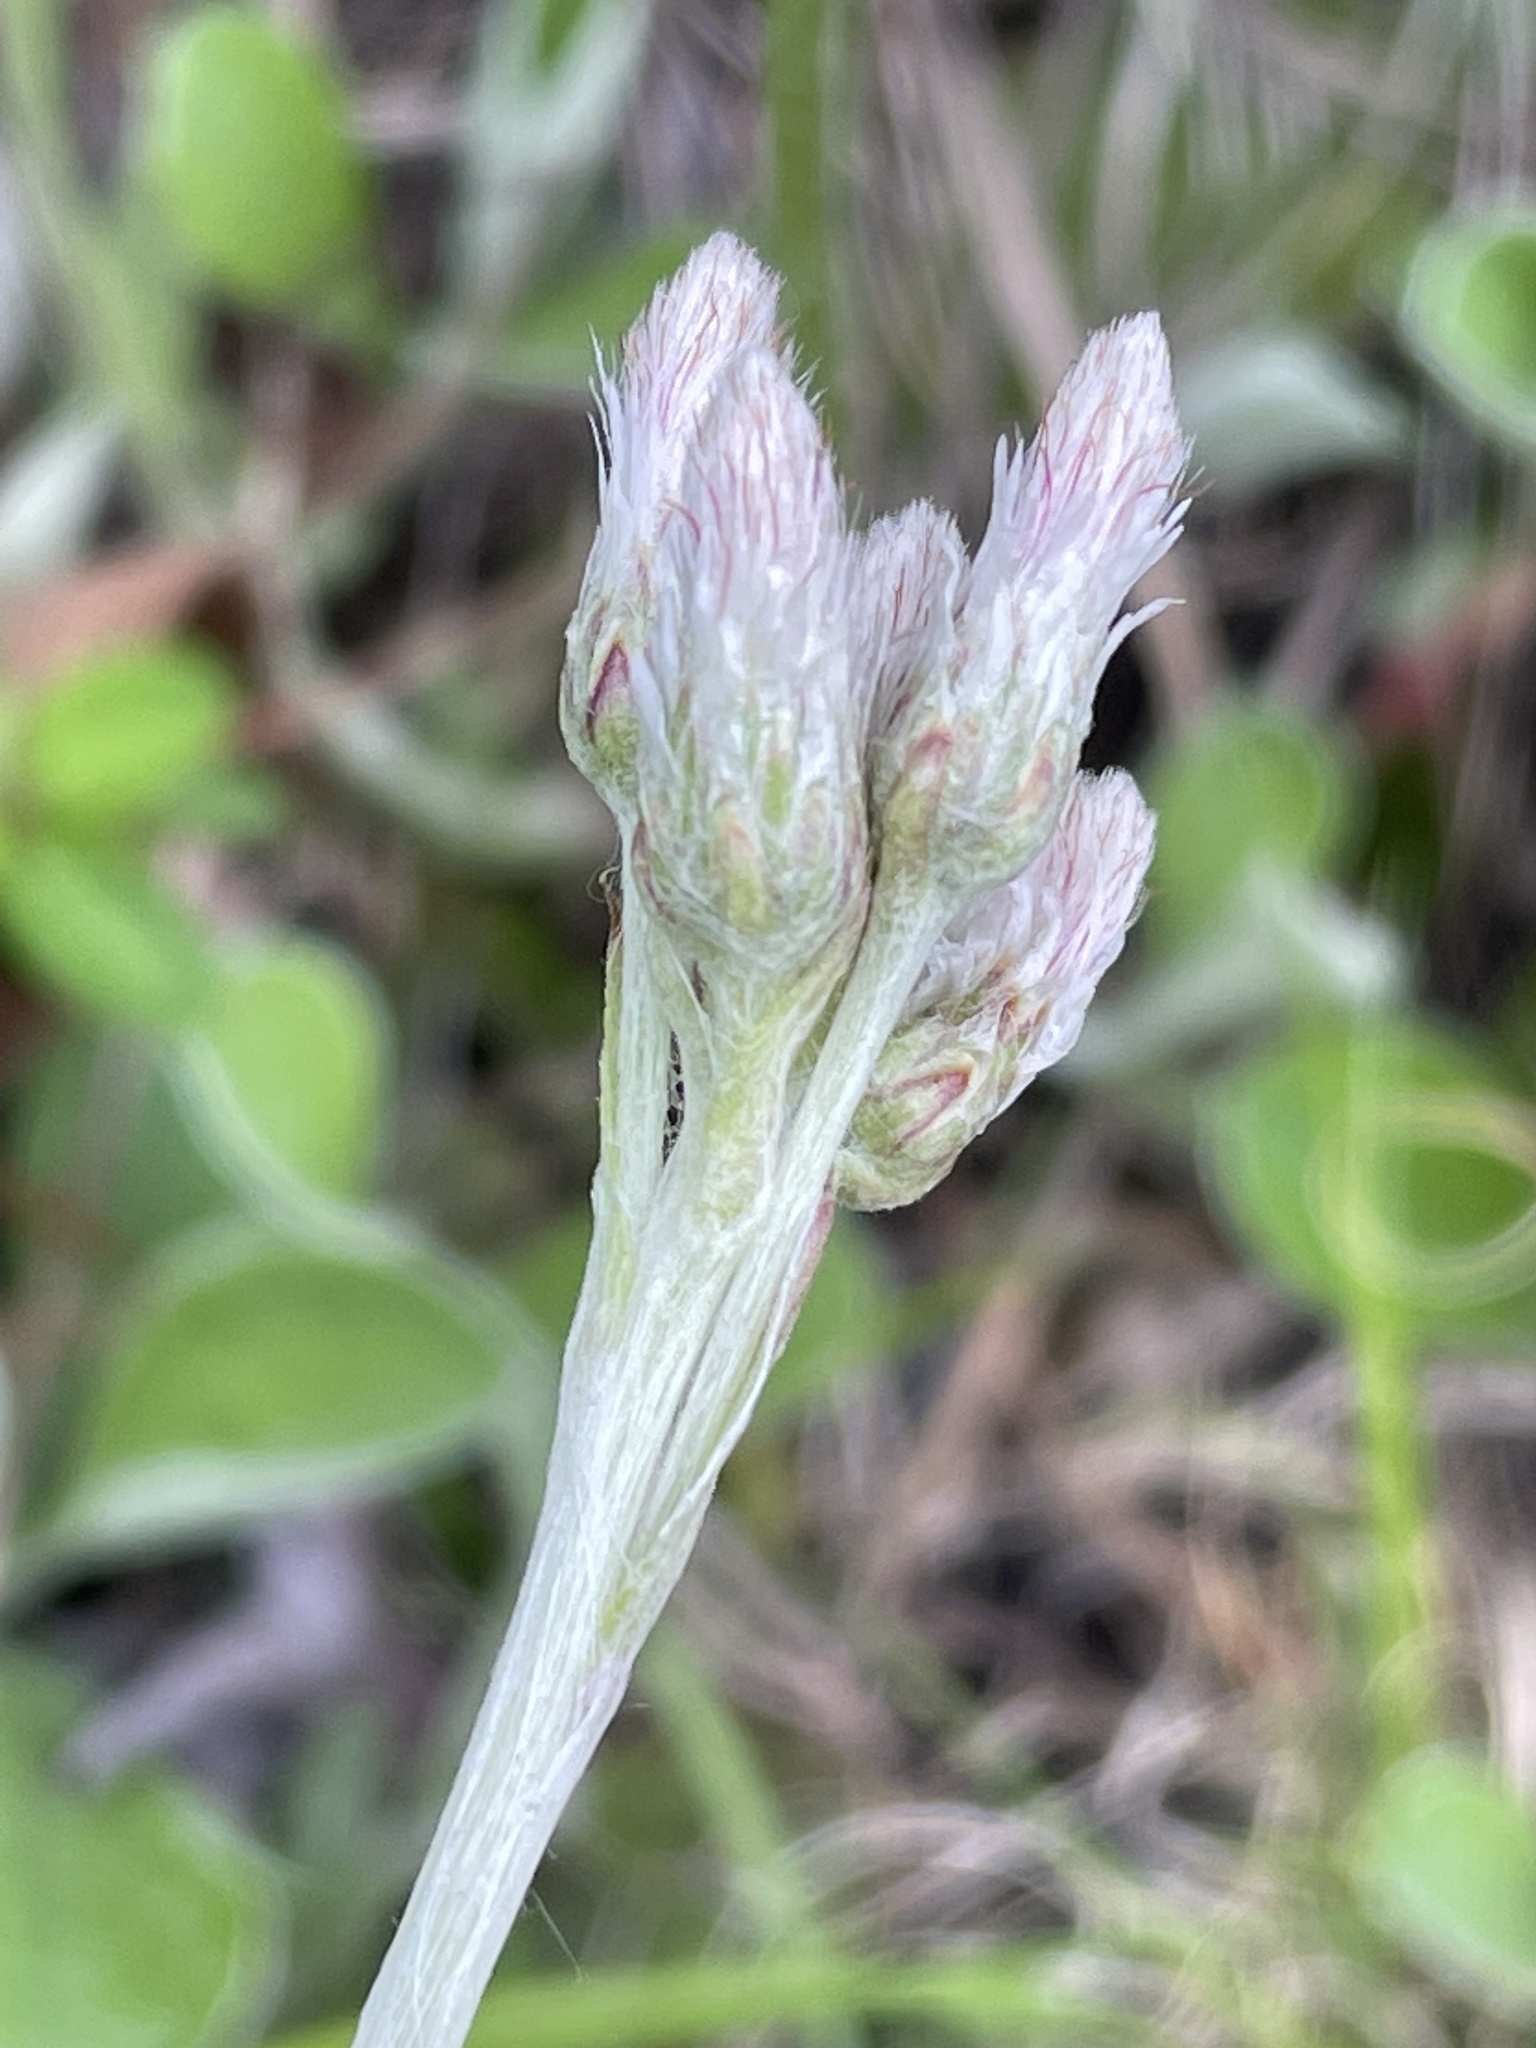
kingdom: Plantae
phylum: Tracheophyta
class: Magnoliopsida
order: Asterales
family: Asteraceae
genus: Antennaria
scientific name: Antennaria parlinii
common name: Parlin's pussytoes
